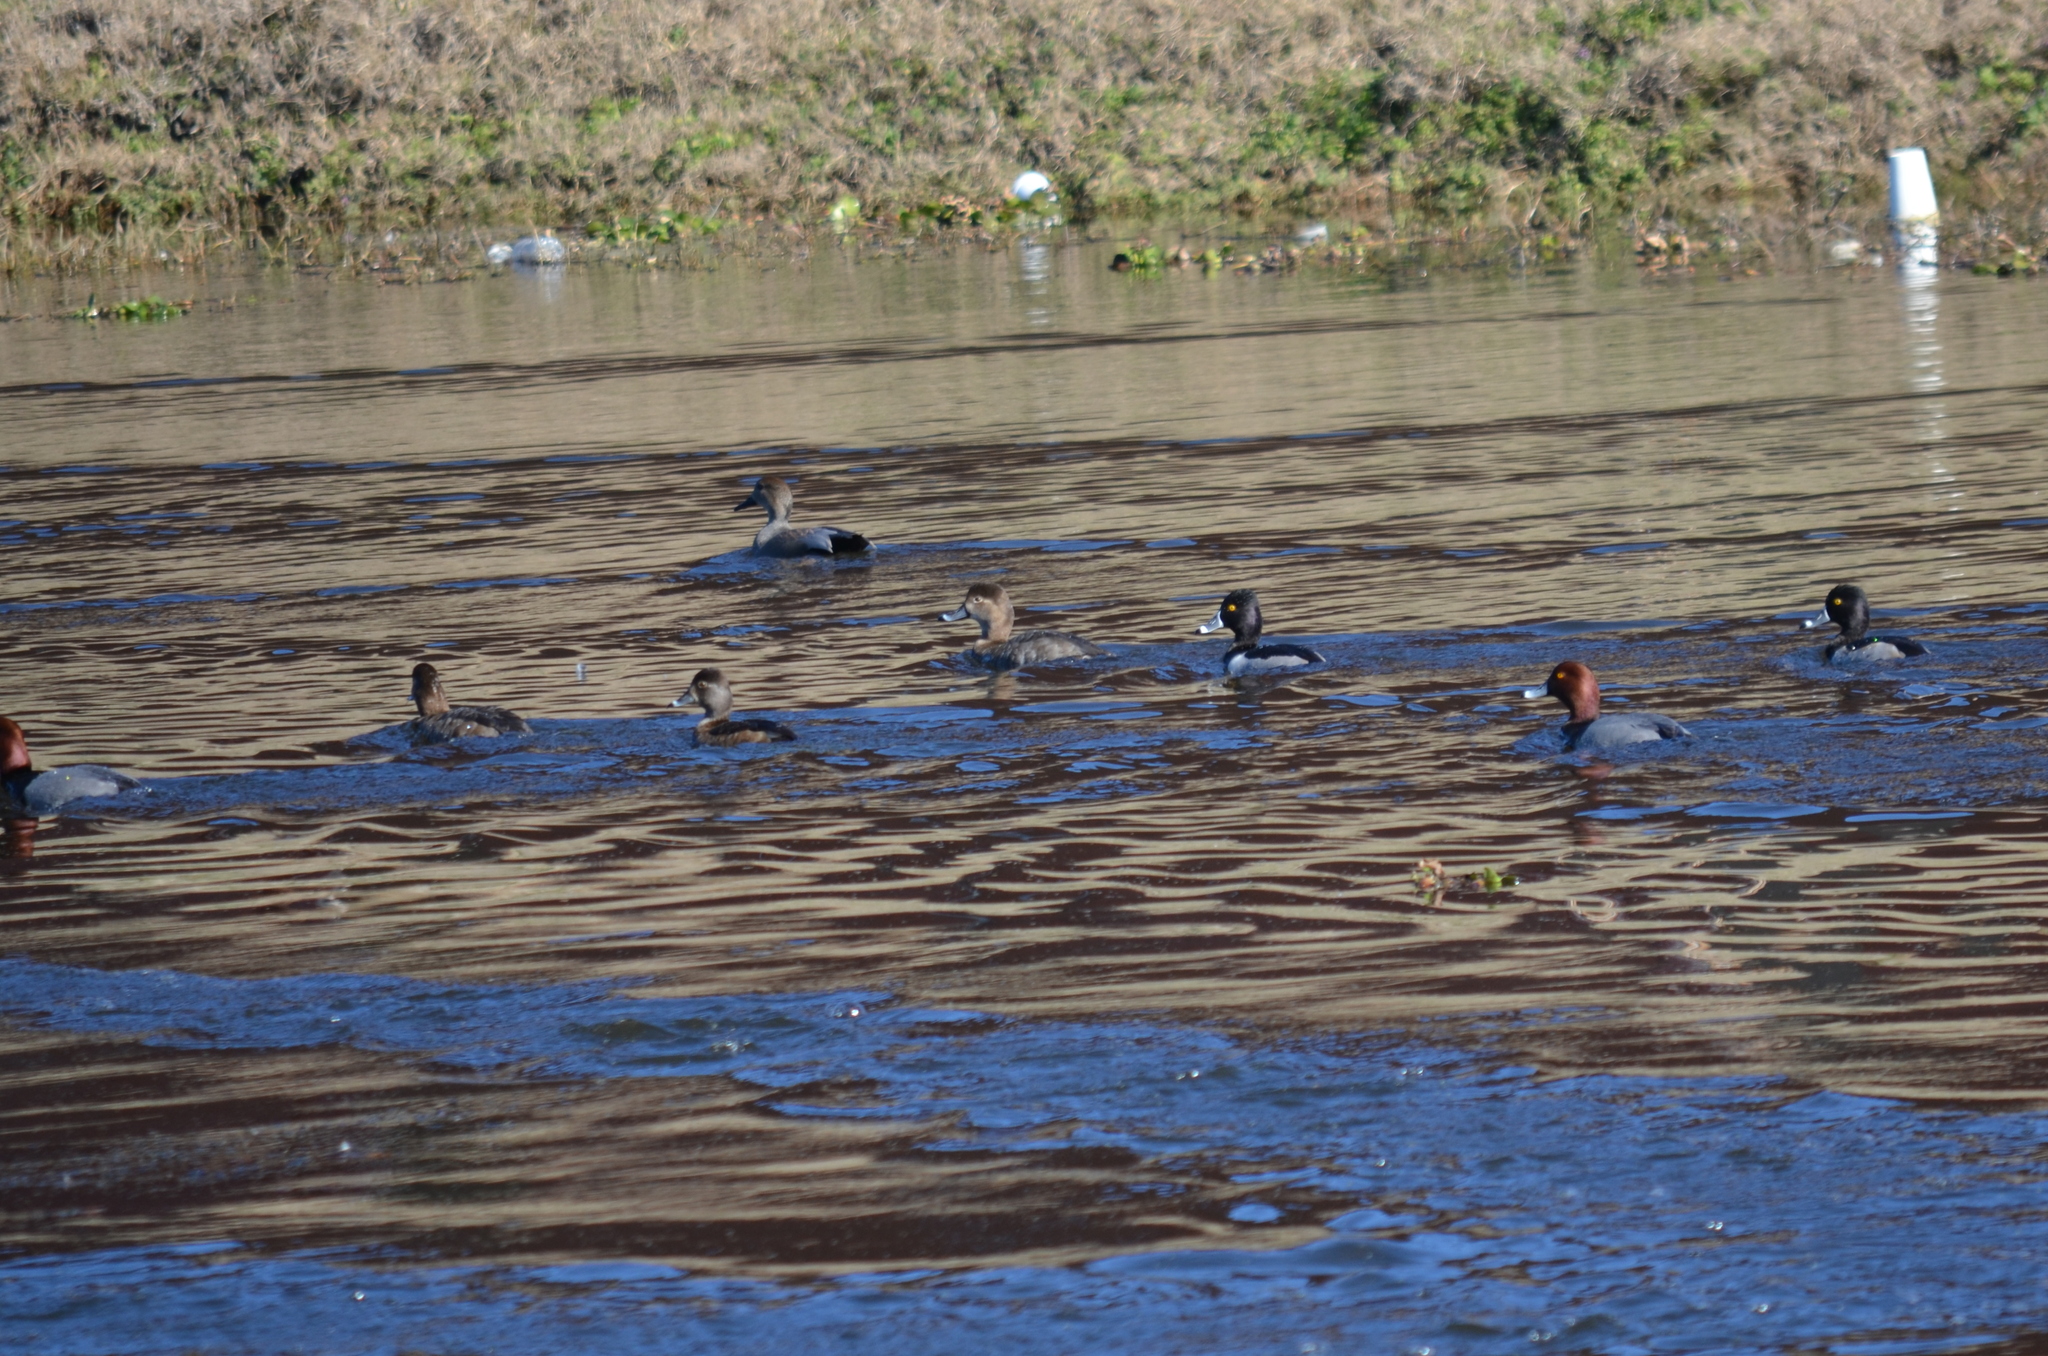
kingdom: Animalia
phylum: Chordata
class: Aves
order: Anseriformes
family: Anatidae
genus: Aythya
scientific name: Aythya collaris
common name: Ring-necked duck
